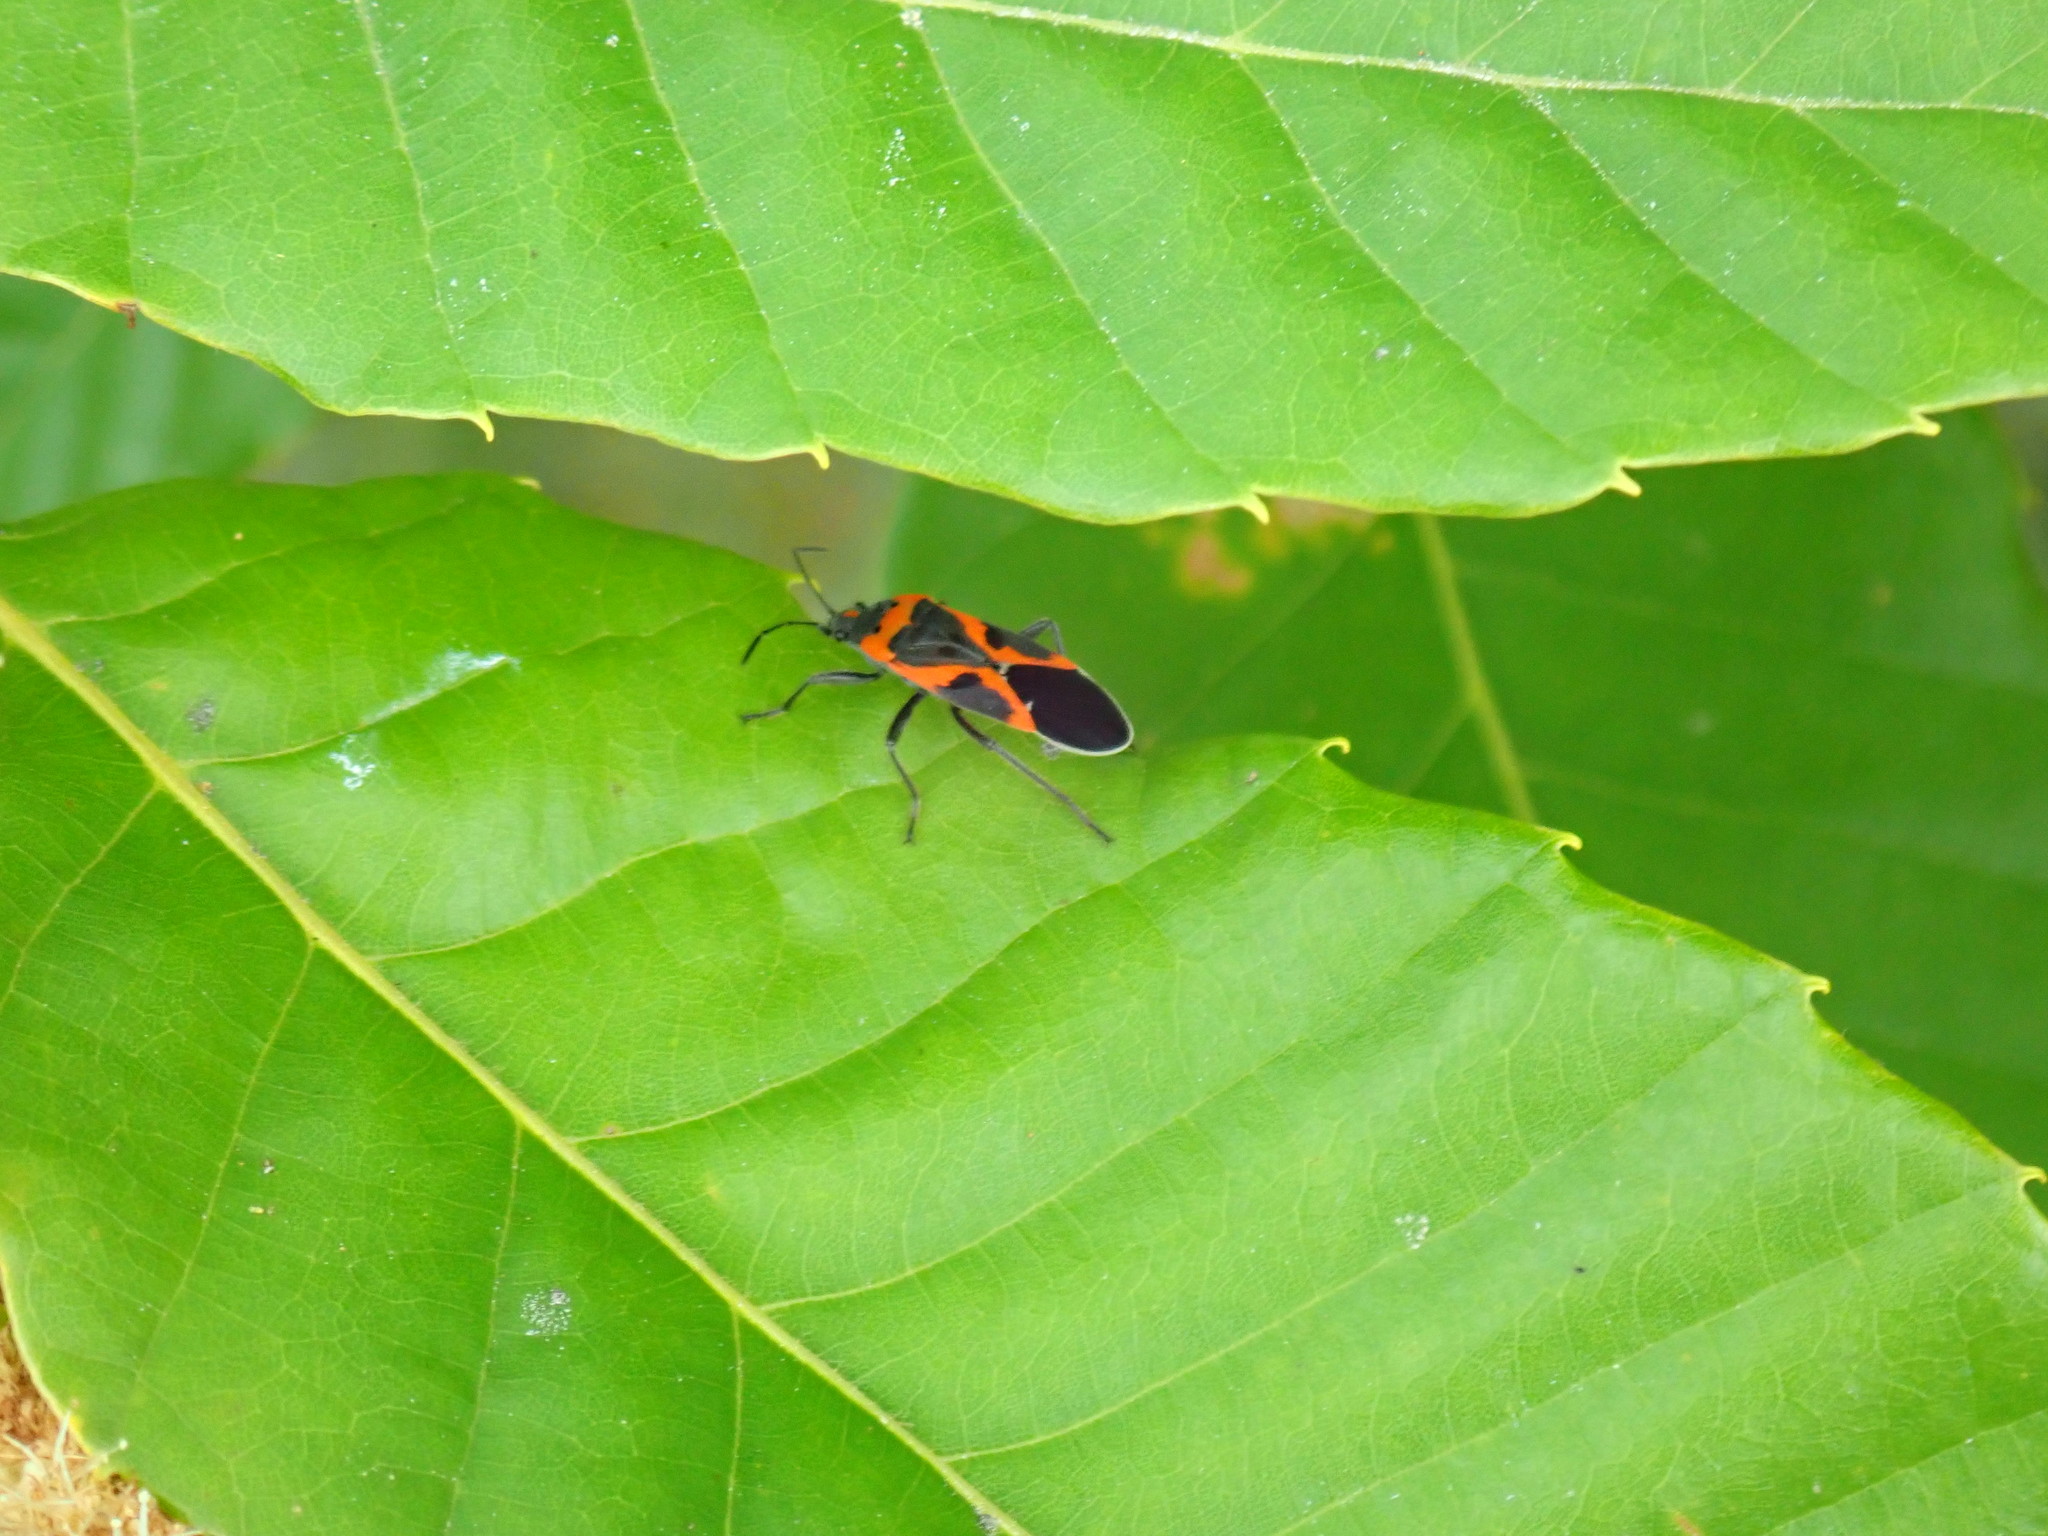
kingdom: Animalia
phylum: Arthropoda
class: Insecta
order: Hemiptera
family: Lygaeidae
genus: Lygaeus
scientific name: Lygaeus kalmii
